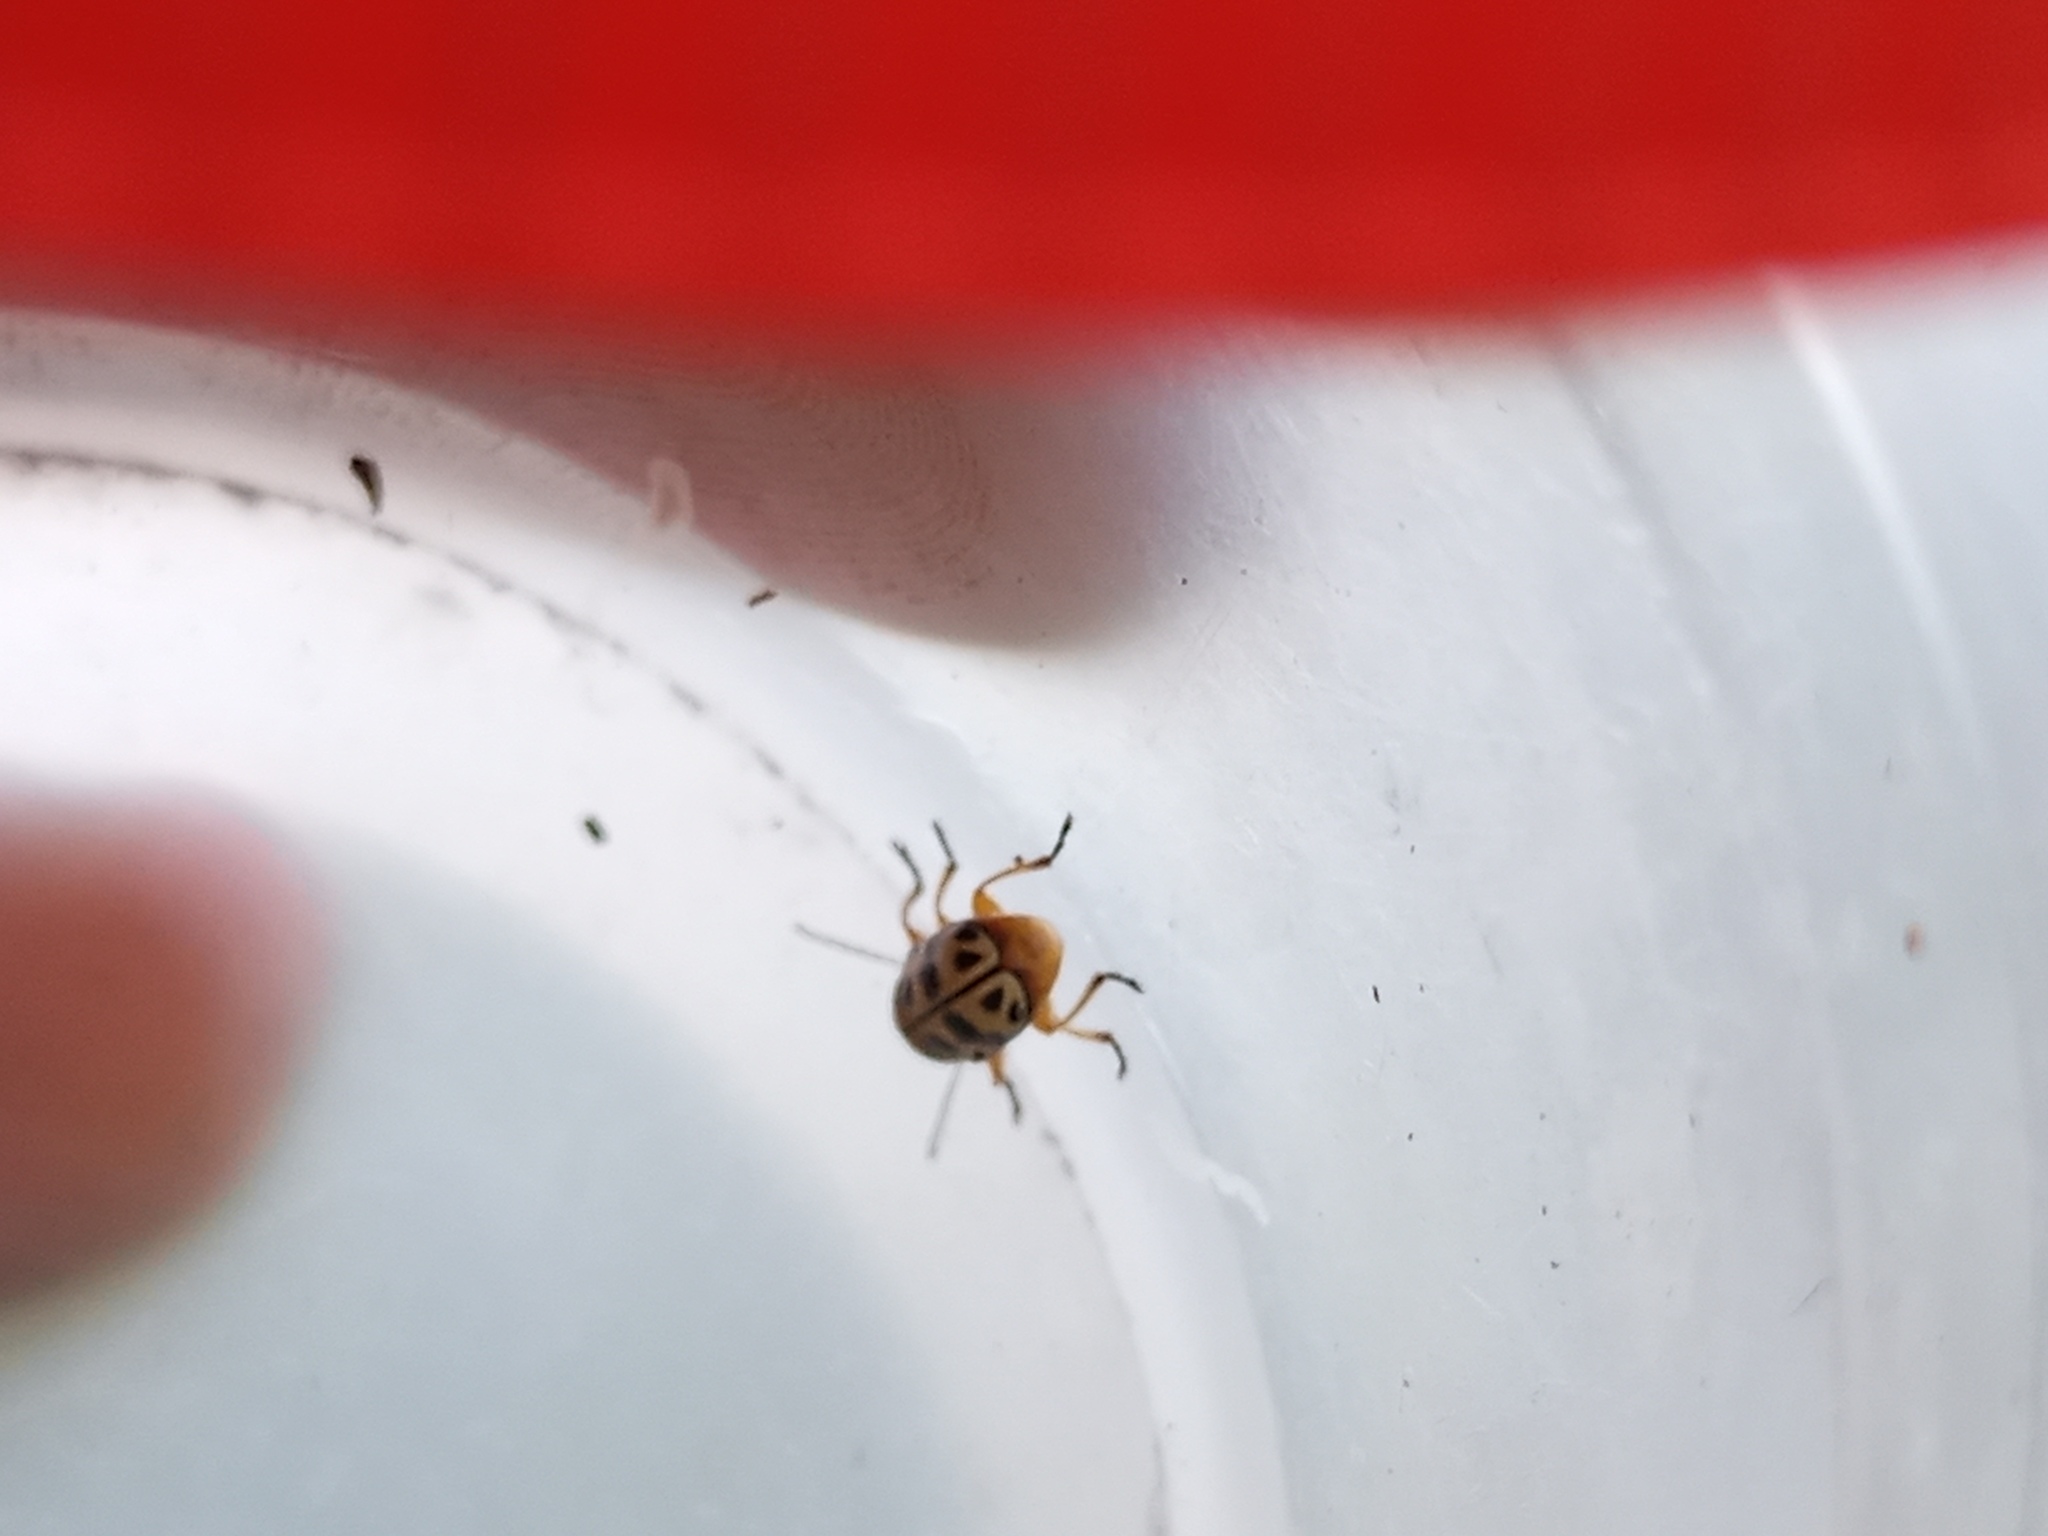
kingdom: Animalia
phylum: Arthropoda
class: Insecta
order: Coleoptera
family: Chrysomelidae
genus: Metallactus
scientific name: Metallactus rileyi
